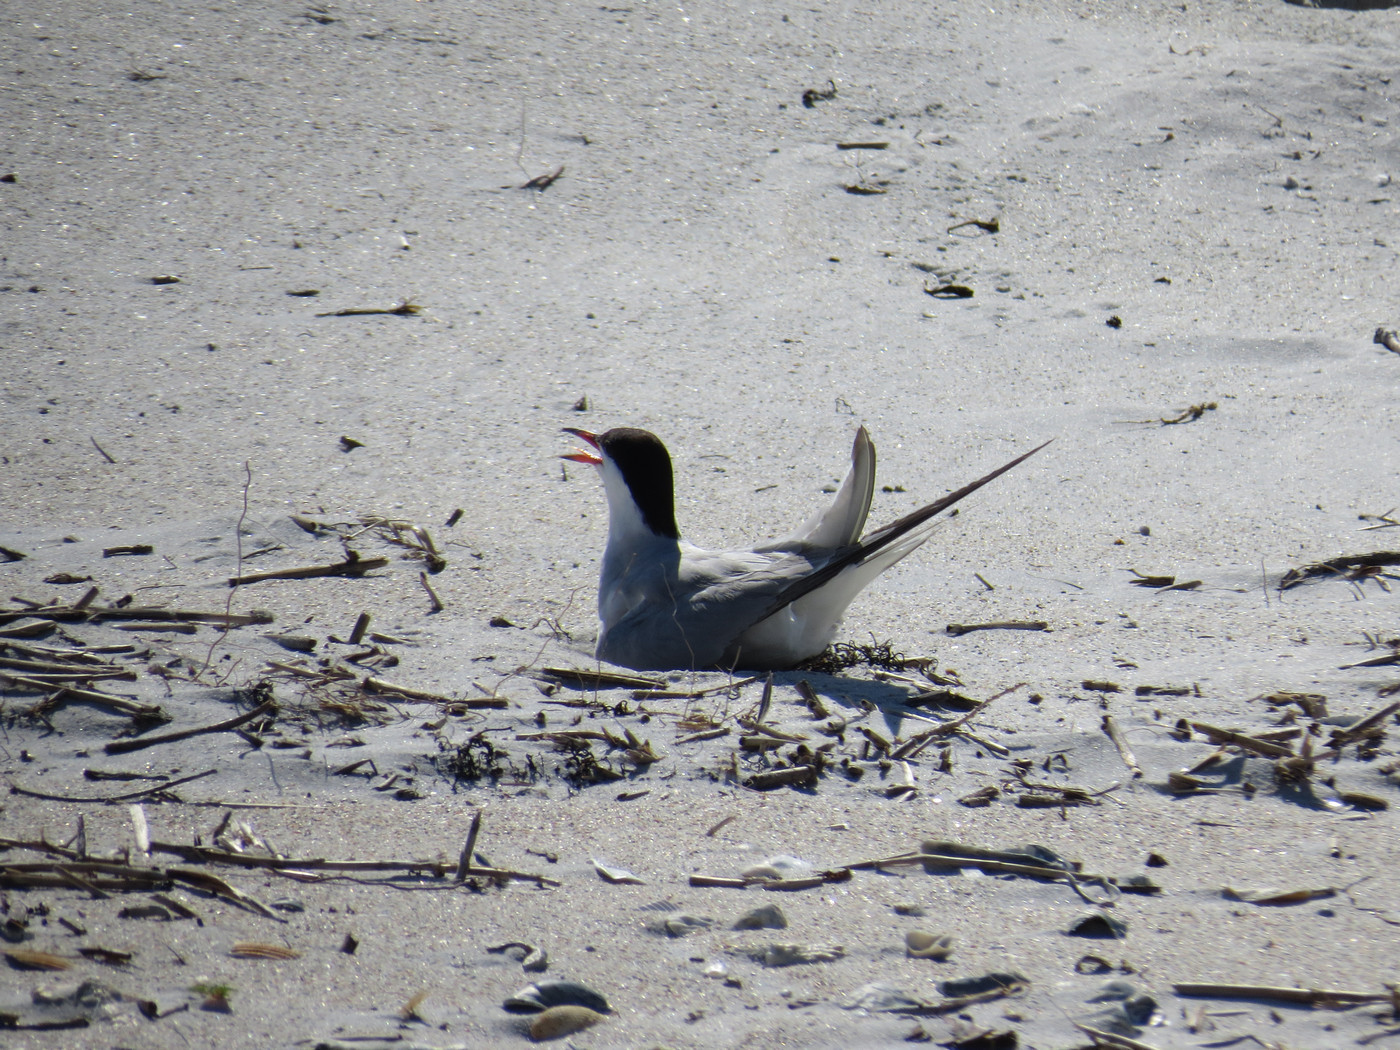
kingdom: Animalia
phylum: Chordata
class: Aves
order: Charadriiformes
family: Laridae
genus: Sterna
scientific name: Sterna hirundo
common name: Common tern
